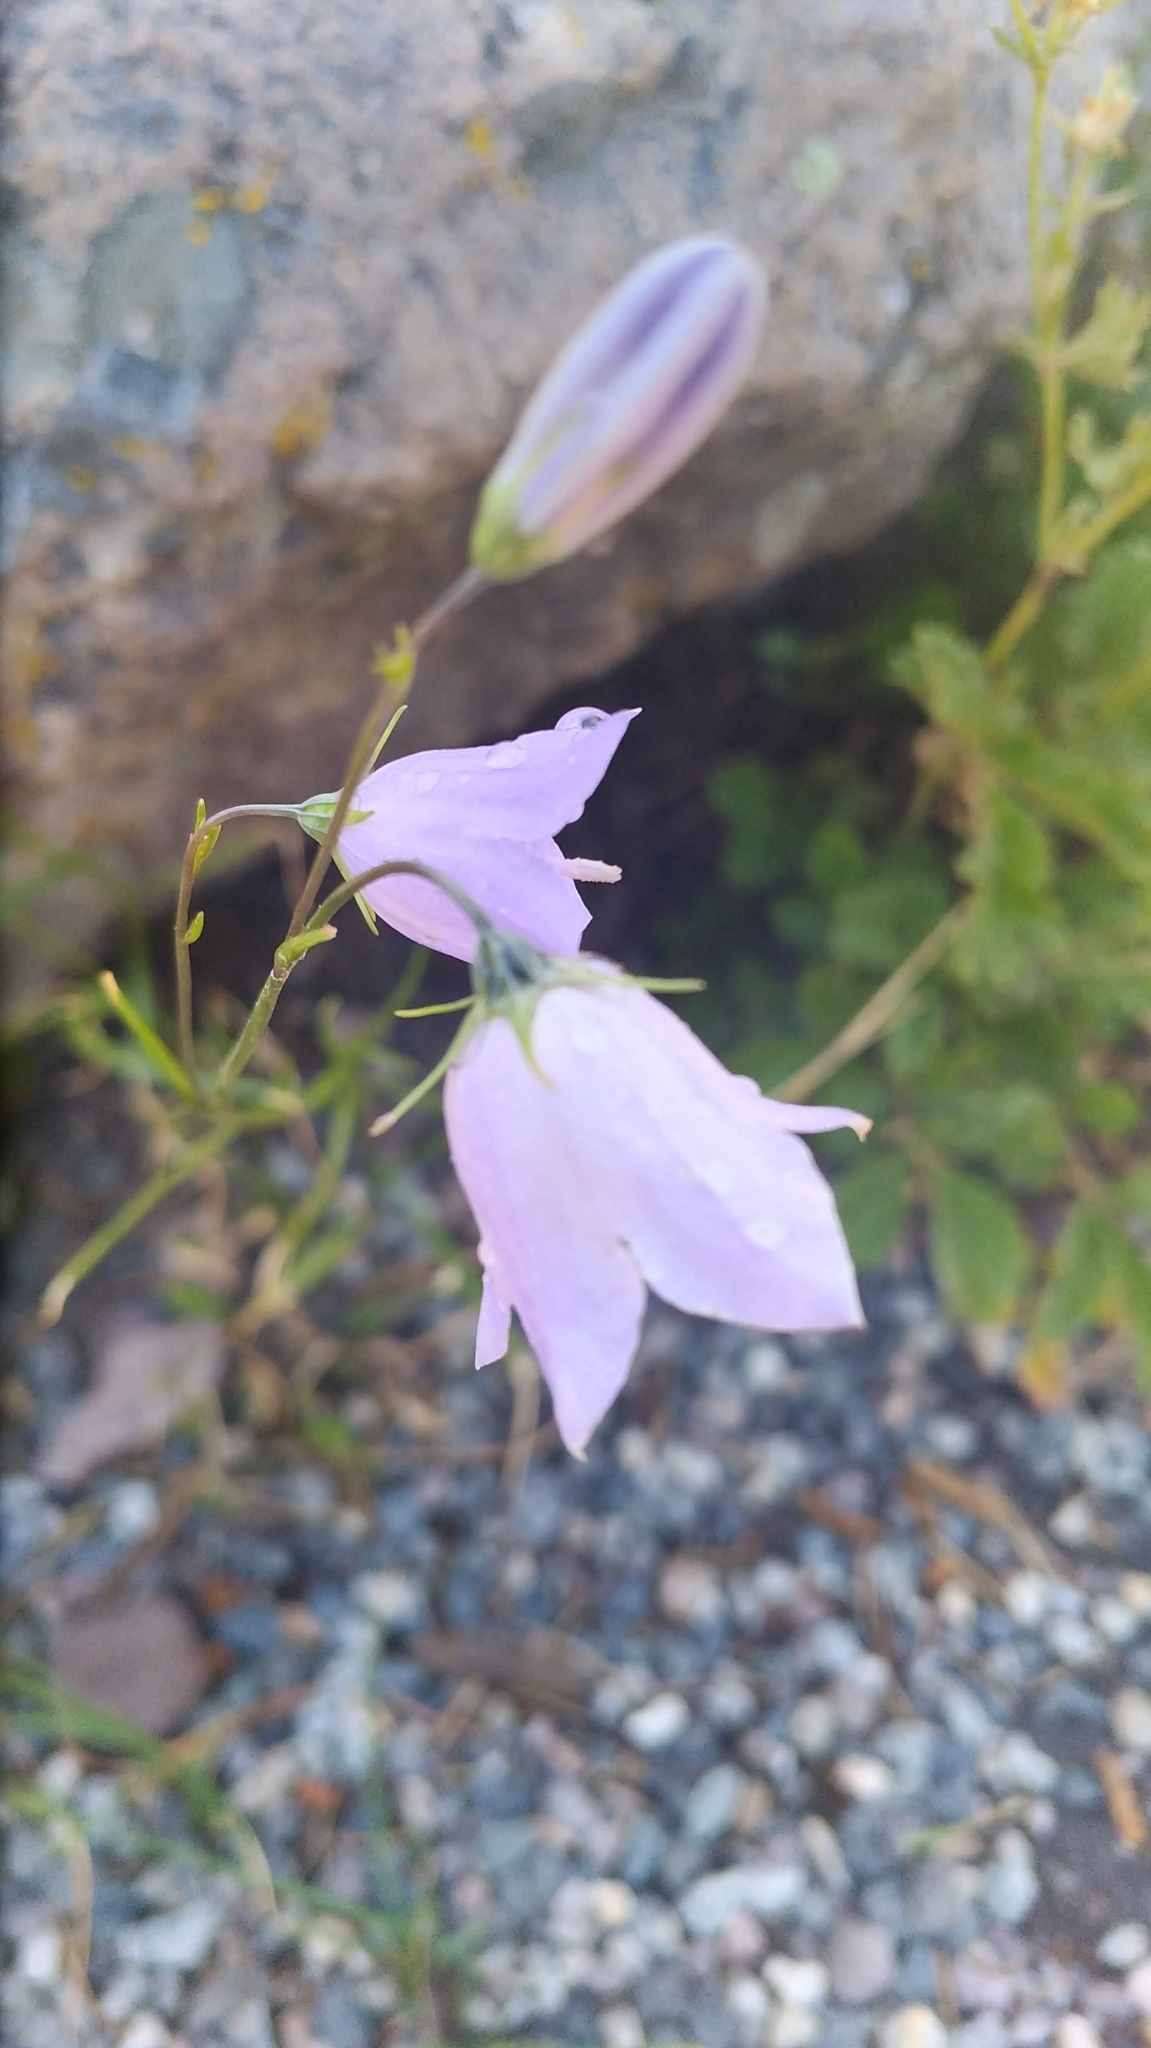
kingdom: Plantae
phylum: Tracheophyta
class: Magnoliopsida
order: Asterales
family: Campanulaceae
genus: Campanula
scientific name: Campanula petiolata
